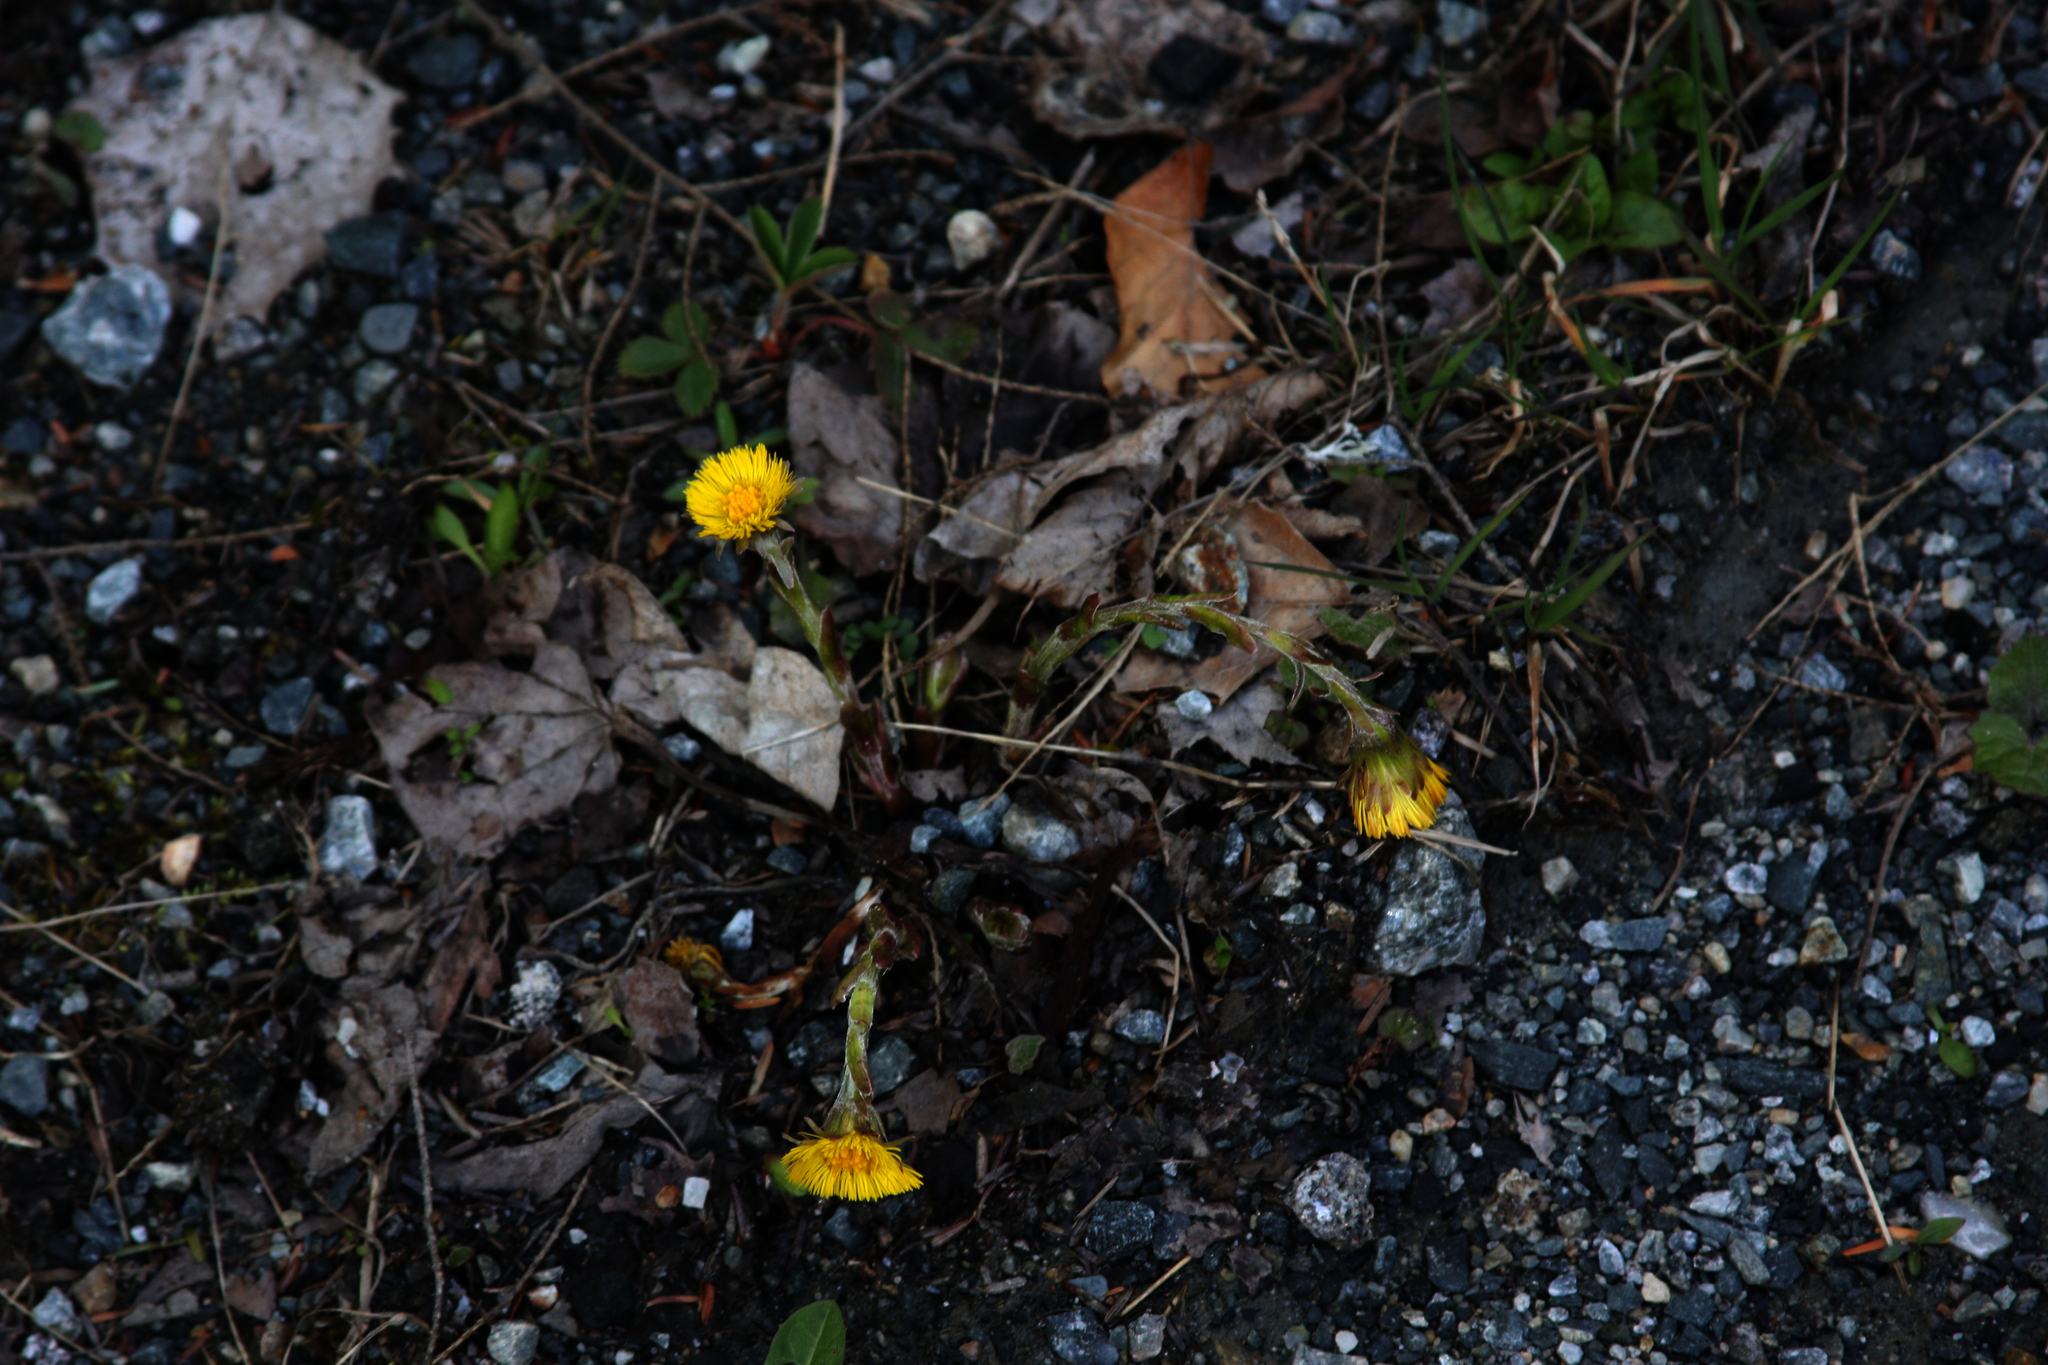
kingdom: Plantae
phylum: Tracheophyta
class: Magnoliopsida
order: Asterales
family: Asteraceae
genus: Tussilago
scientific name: Tussilago farfara
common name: Coltsfoot
